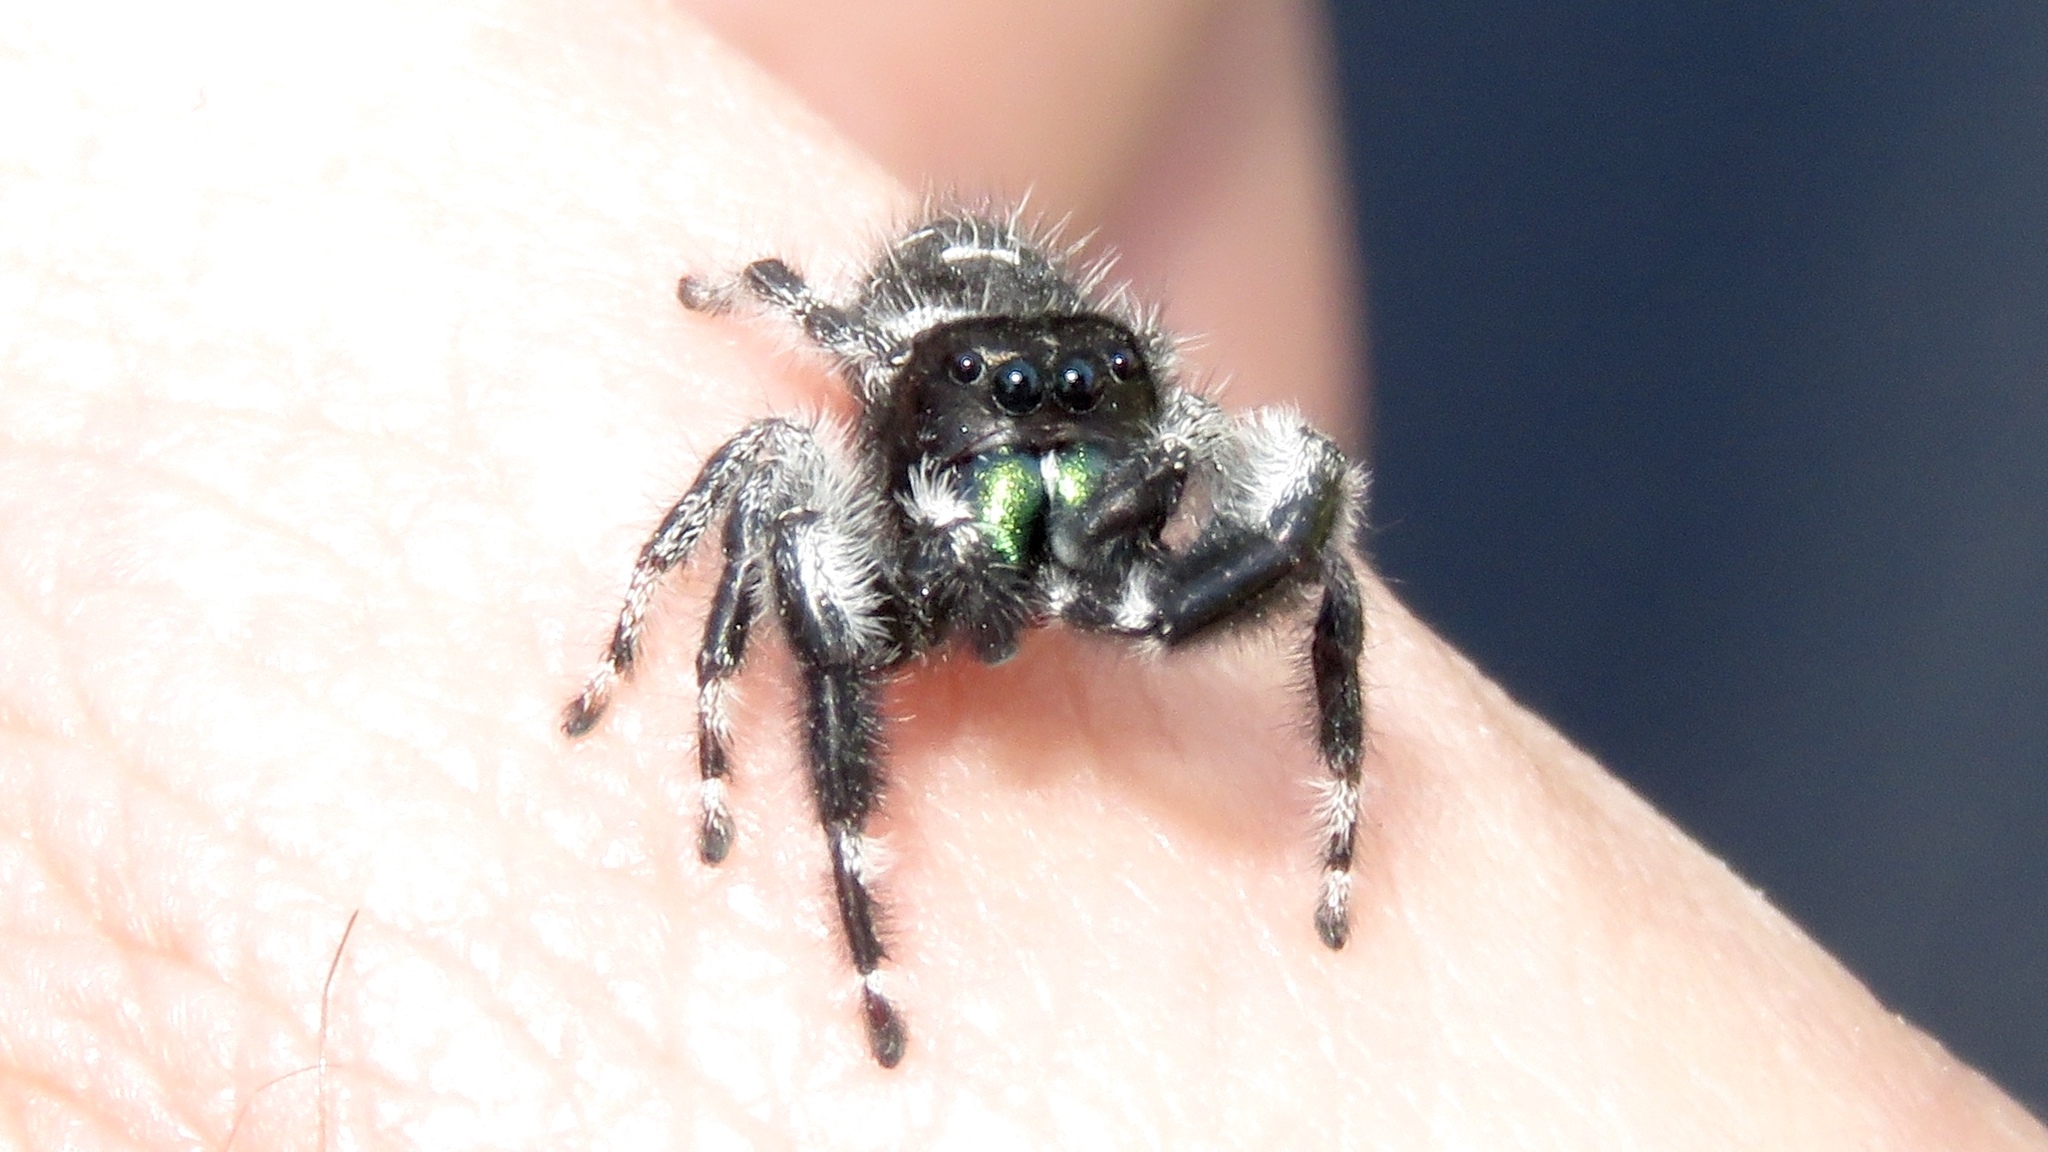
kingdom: Animalia
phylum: Arthropoda
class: Arachnida
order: Araneae
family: Salticidae
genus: Phidippus
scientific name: Phidippus audax
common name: Bold jumper
